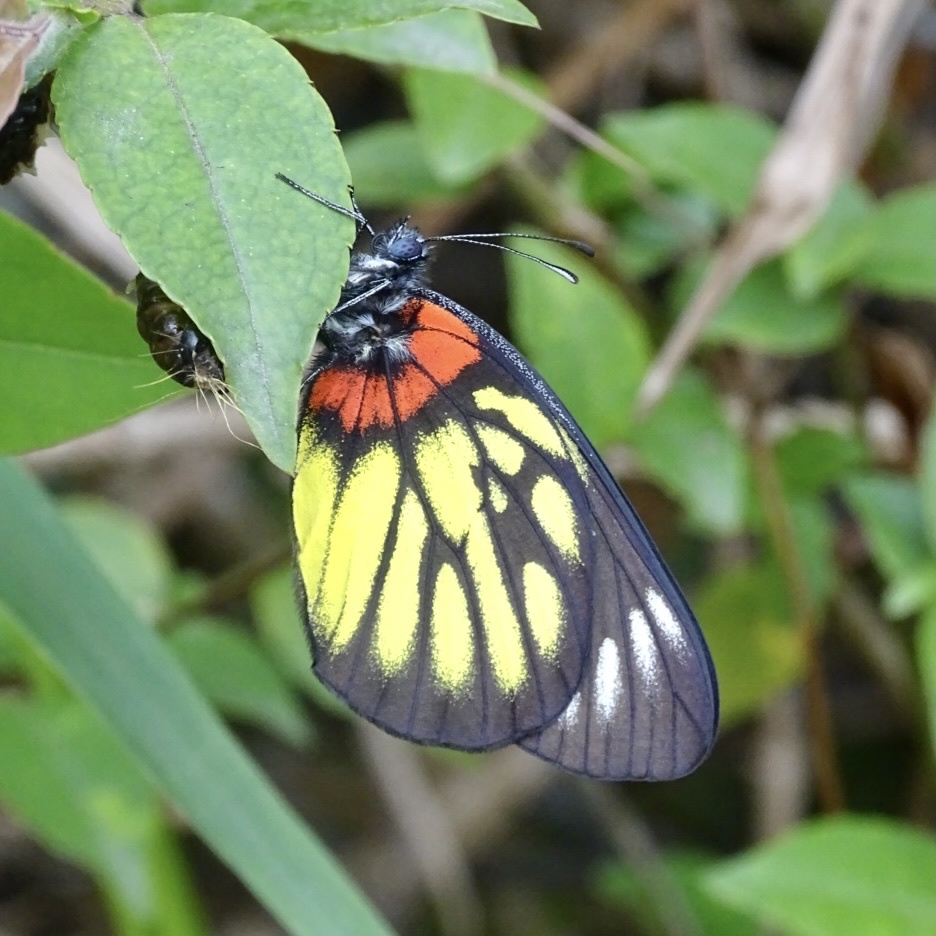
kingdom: Animalia
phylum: Arthropoda
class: Insecta
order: Lepidoptera
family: Pieridae
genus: Delias
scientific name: Delias pasithoe
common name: Red-base jezebel
